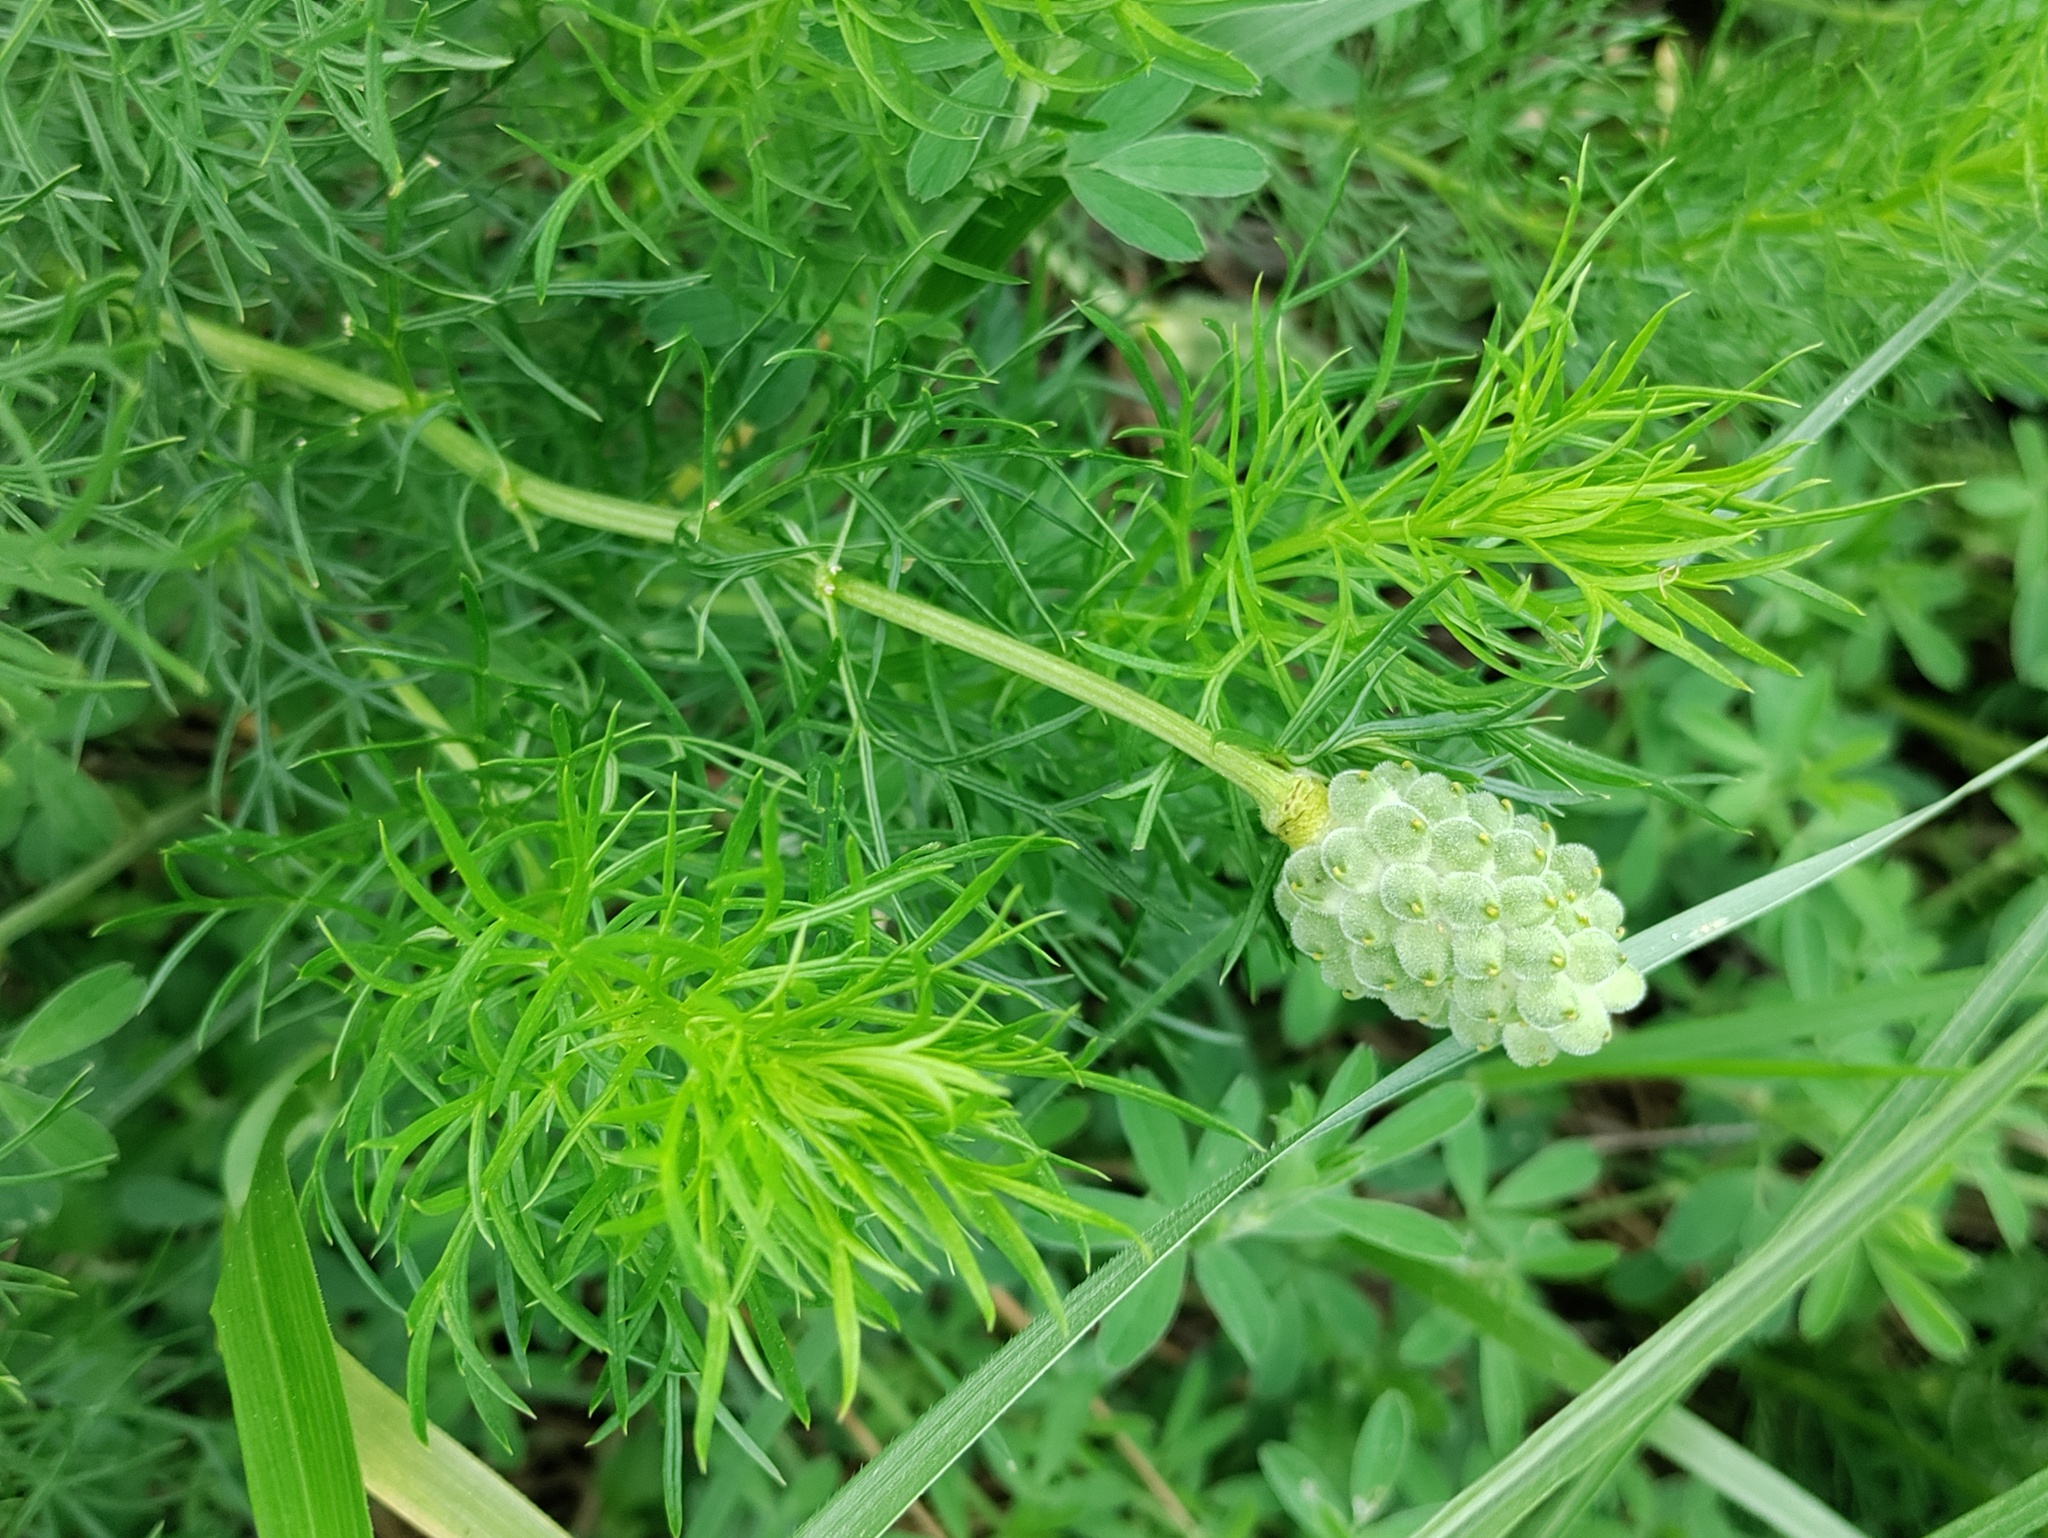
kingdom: Plantae
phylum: Tracheophyta
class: Magnoliopsida
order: Ranunculales
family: Ranunculaceae
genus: Adonis
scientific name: Adonis vernalis
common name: Yellow pheasants-eye
